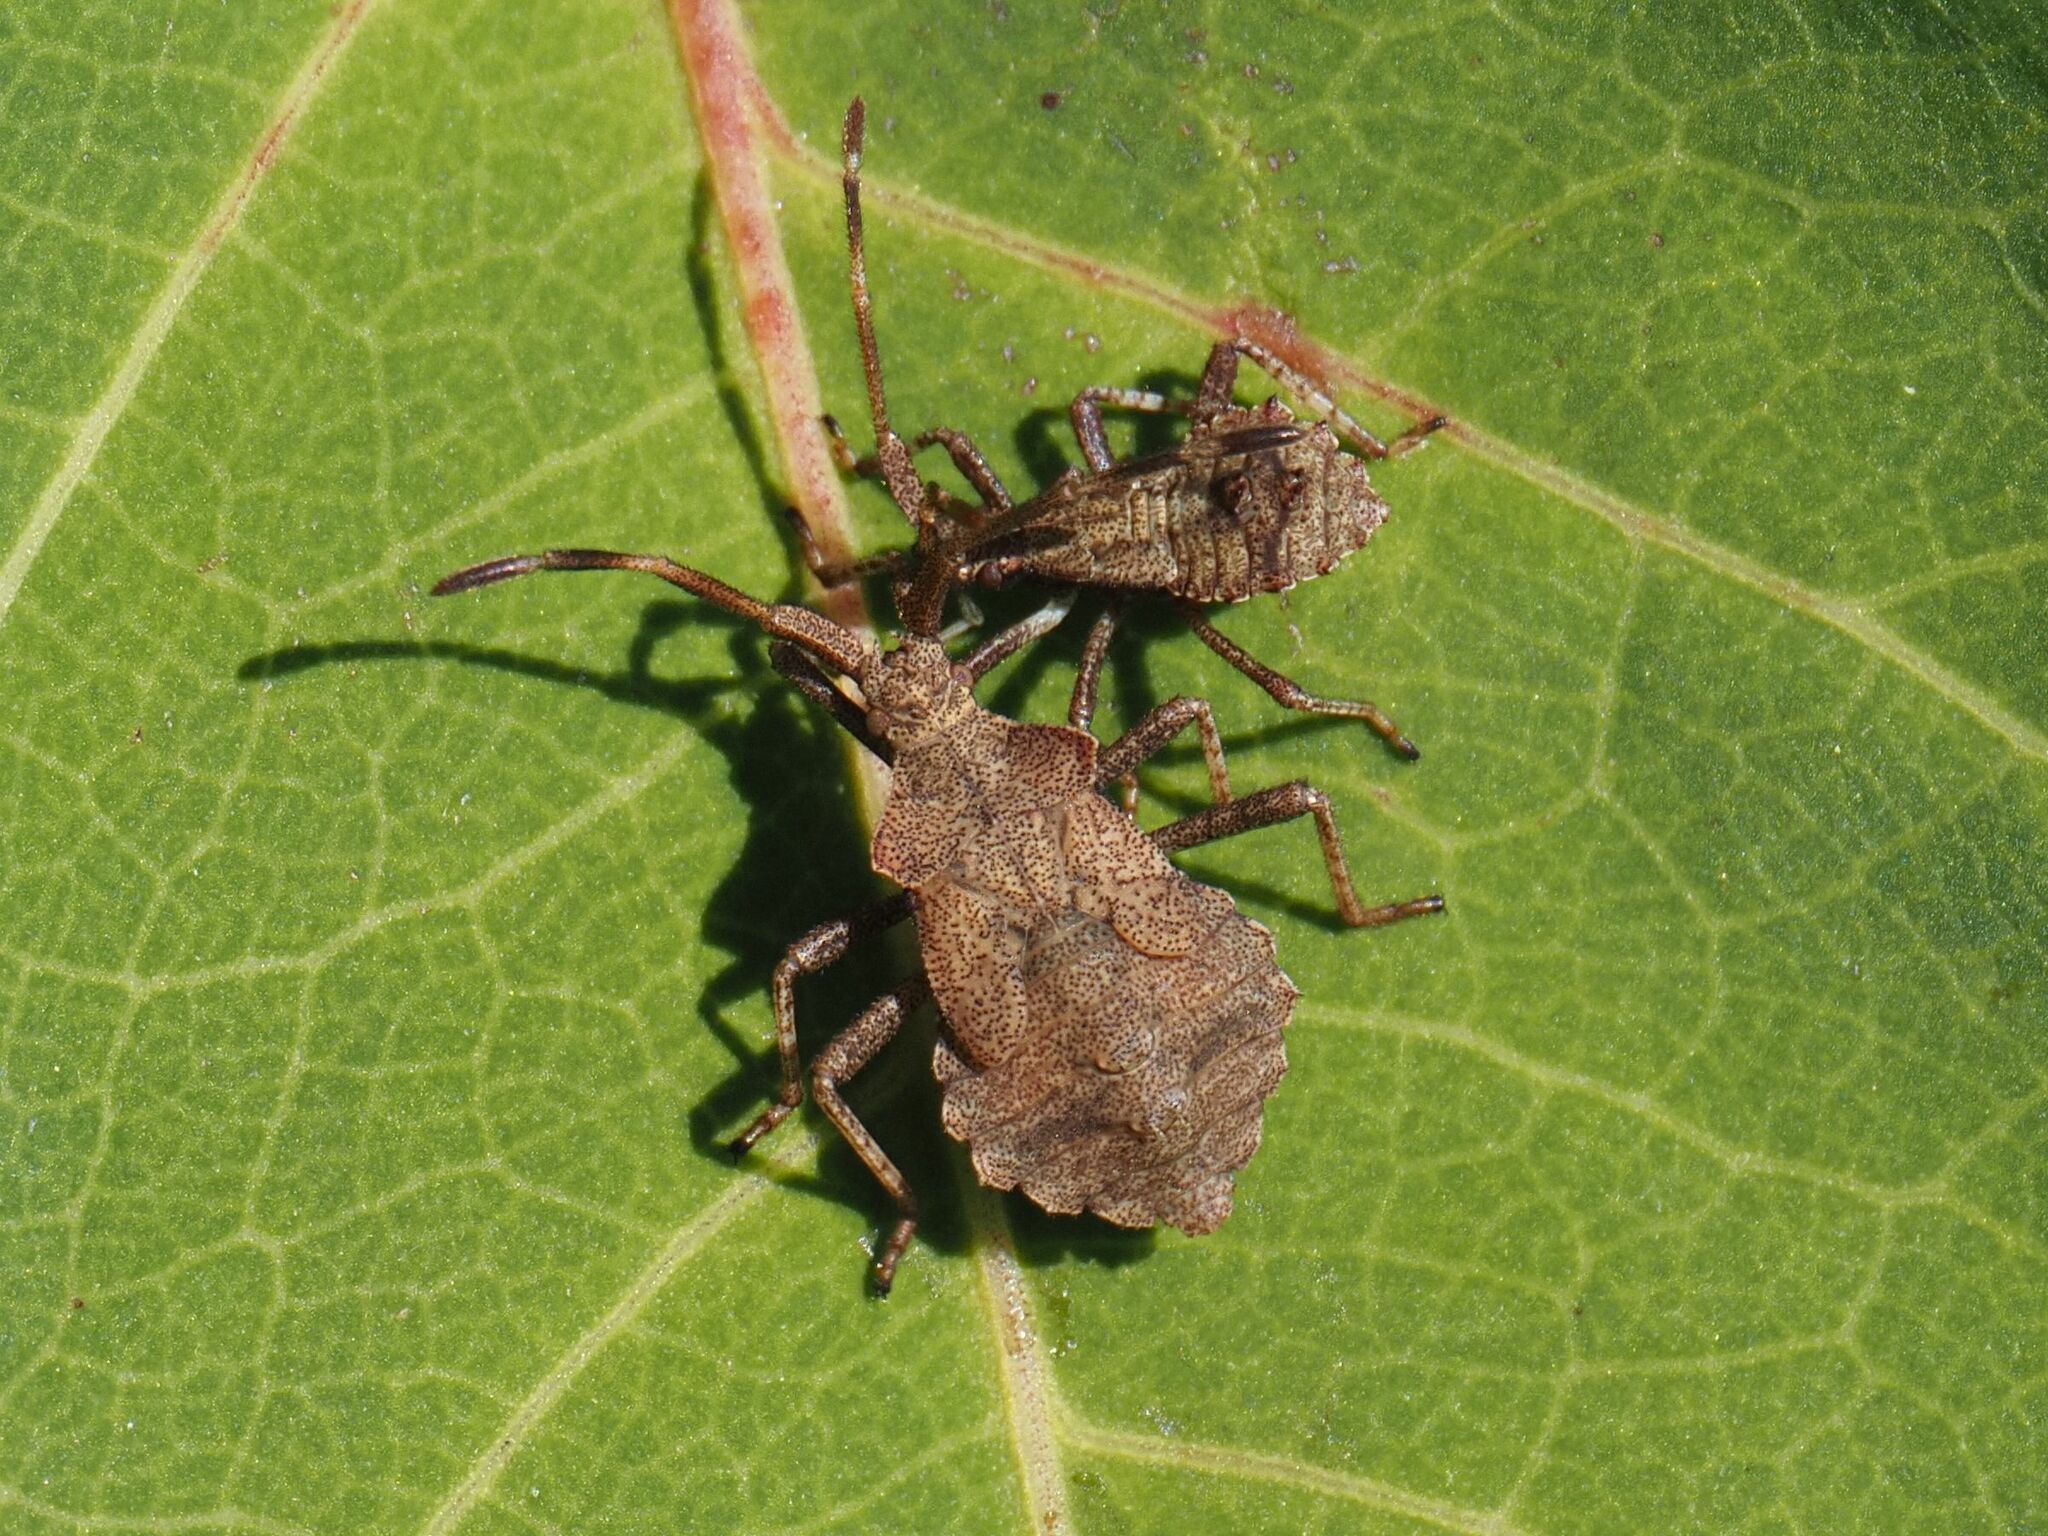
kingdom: Animalia
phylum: Arthropoda
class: Insecta
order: Hemiptera
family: Coreidae
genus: Coreus
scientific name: Coreus marginatus
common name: Dock bug
